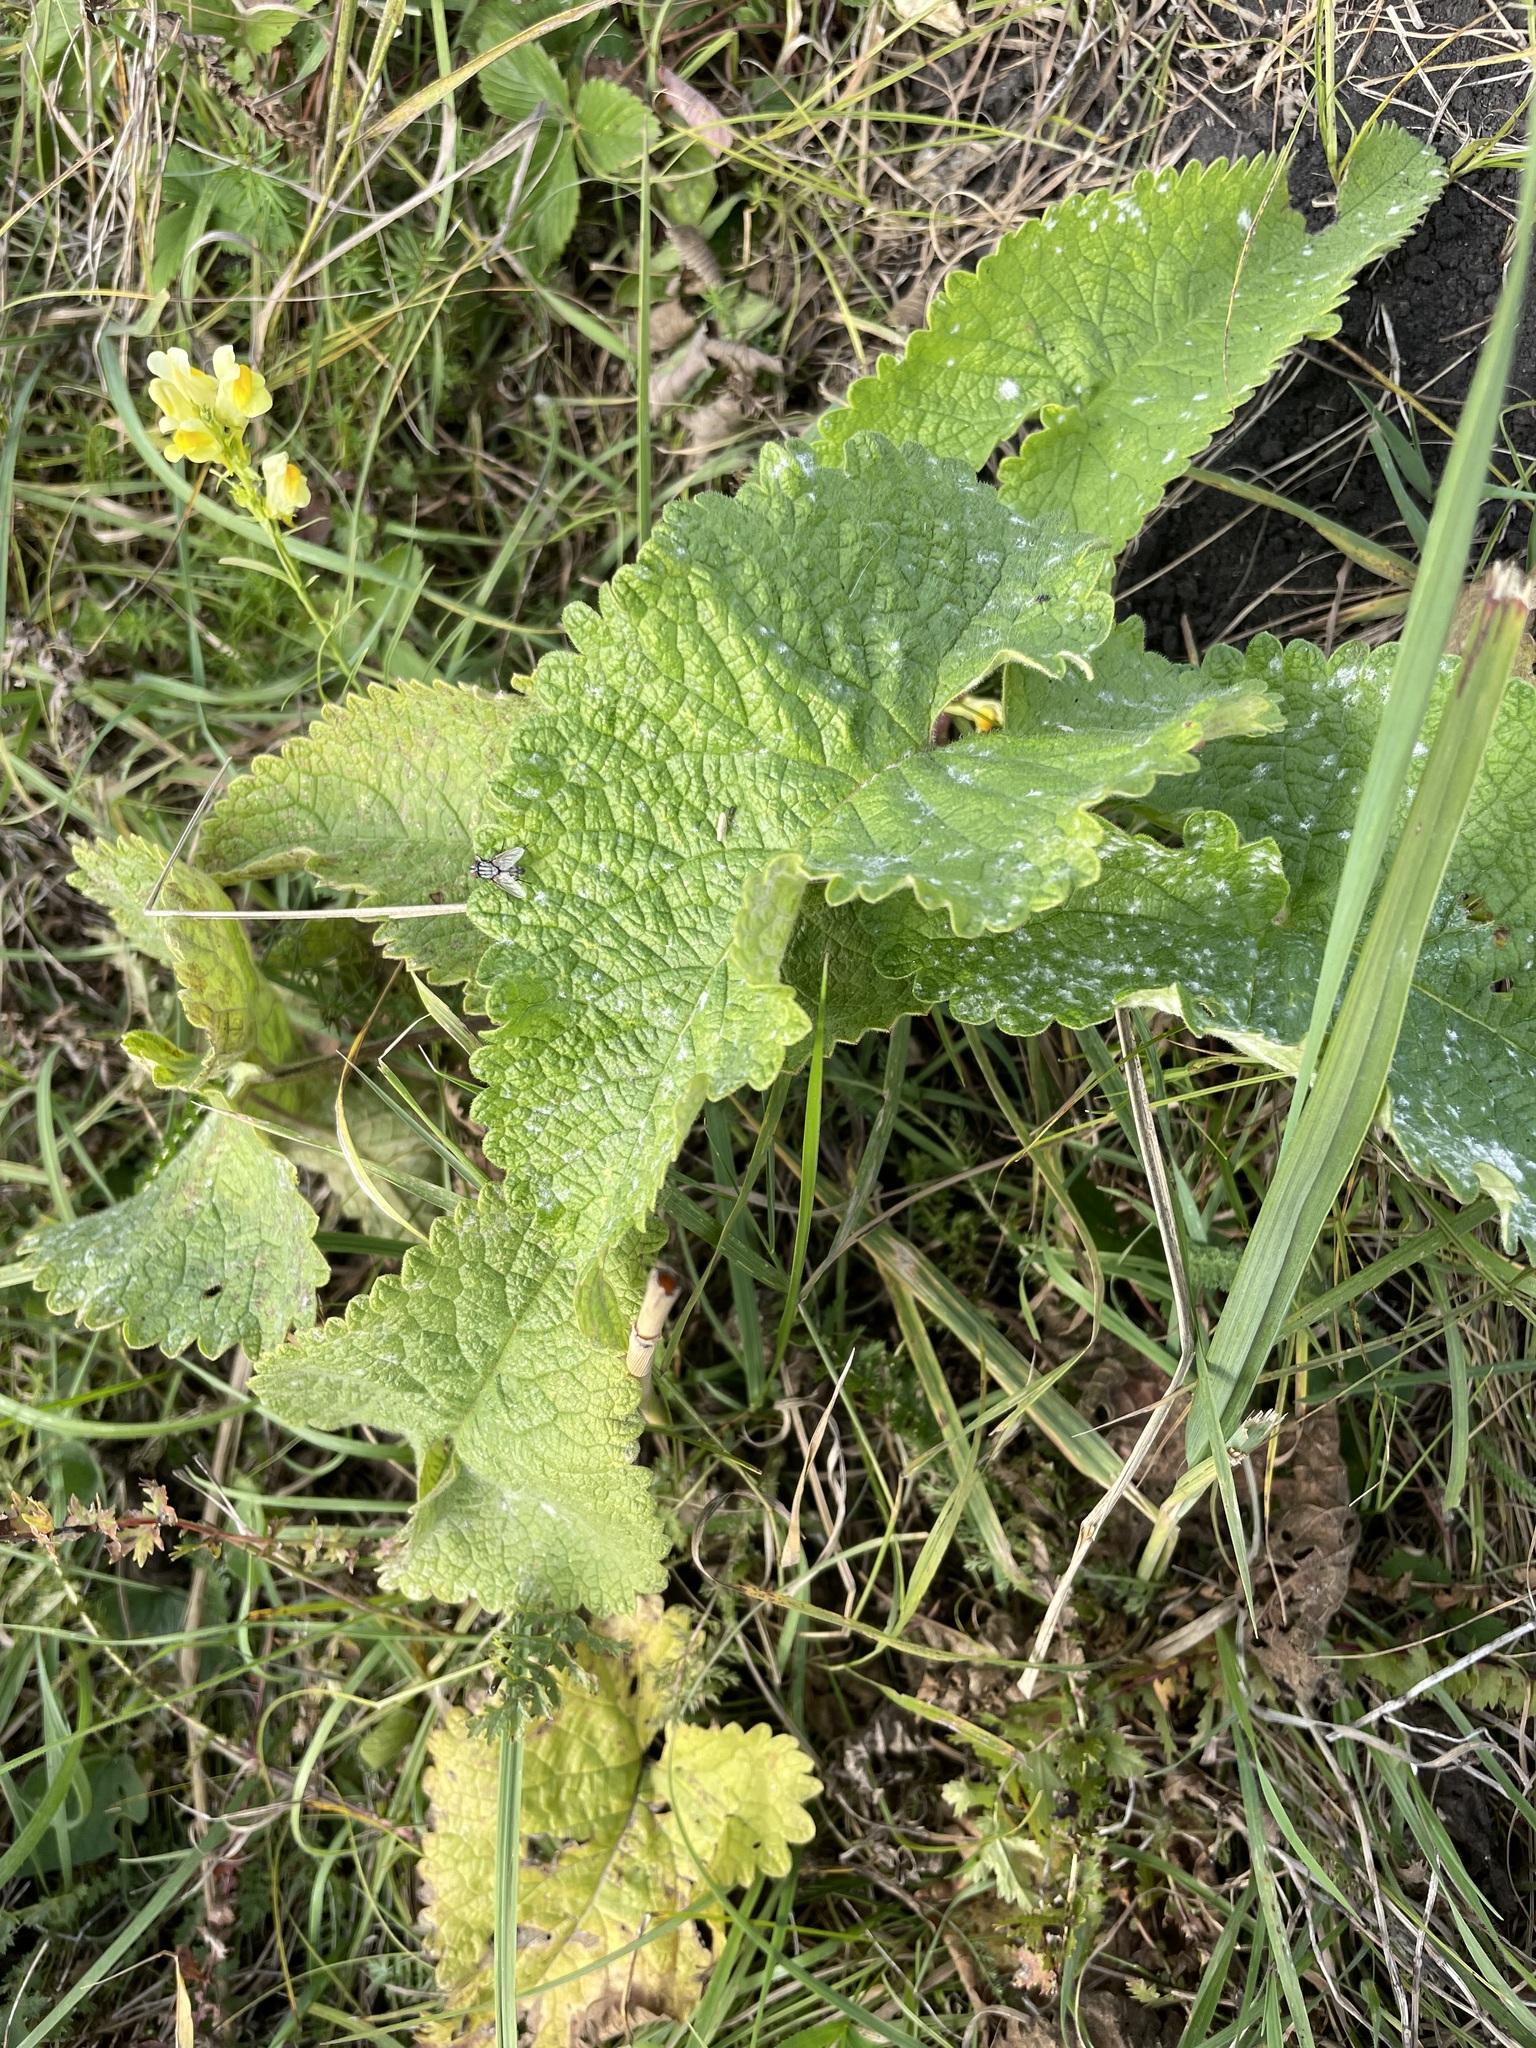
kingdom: Plantae
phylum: Tracheophyta
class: Magnoliopsida
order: Lamiales
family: Lamiaceae
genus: Phlomoides
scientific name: Phlomoides tuberosa
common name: Tuberous jerusalem sage
